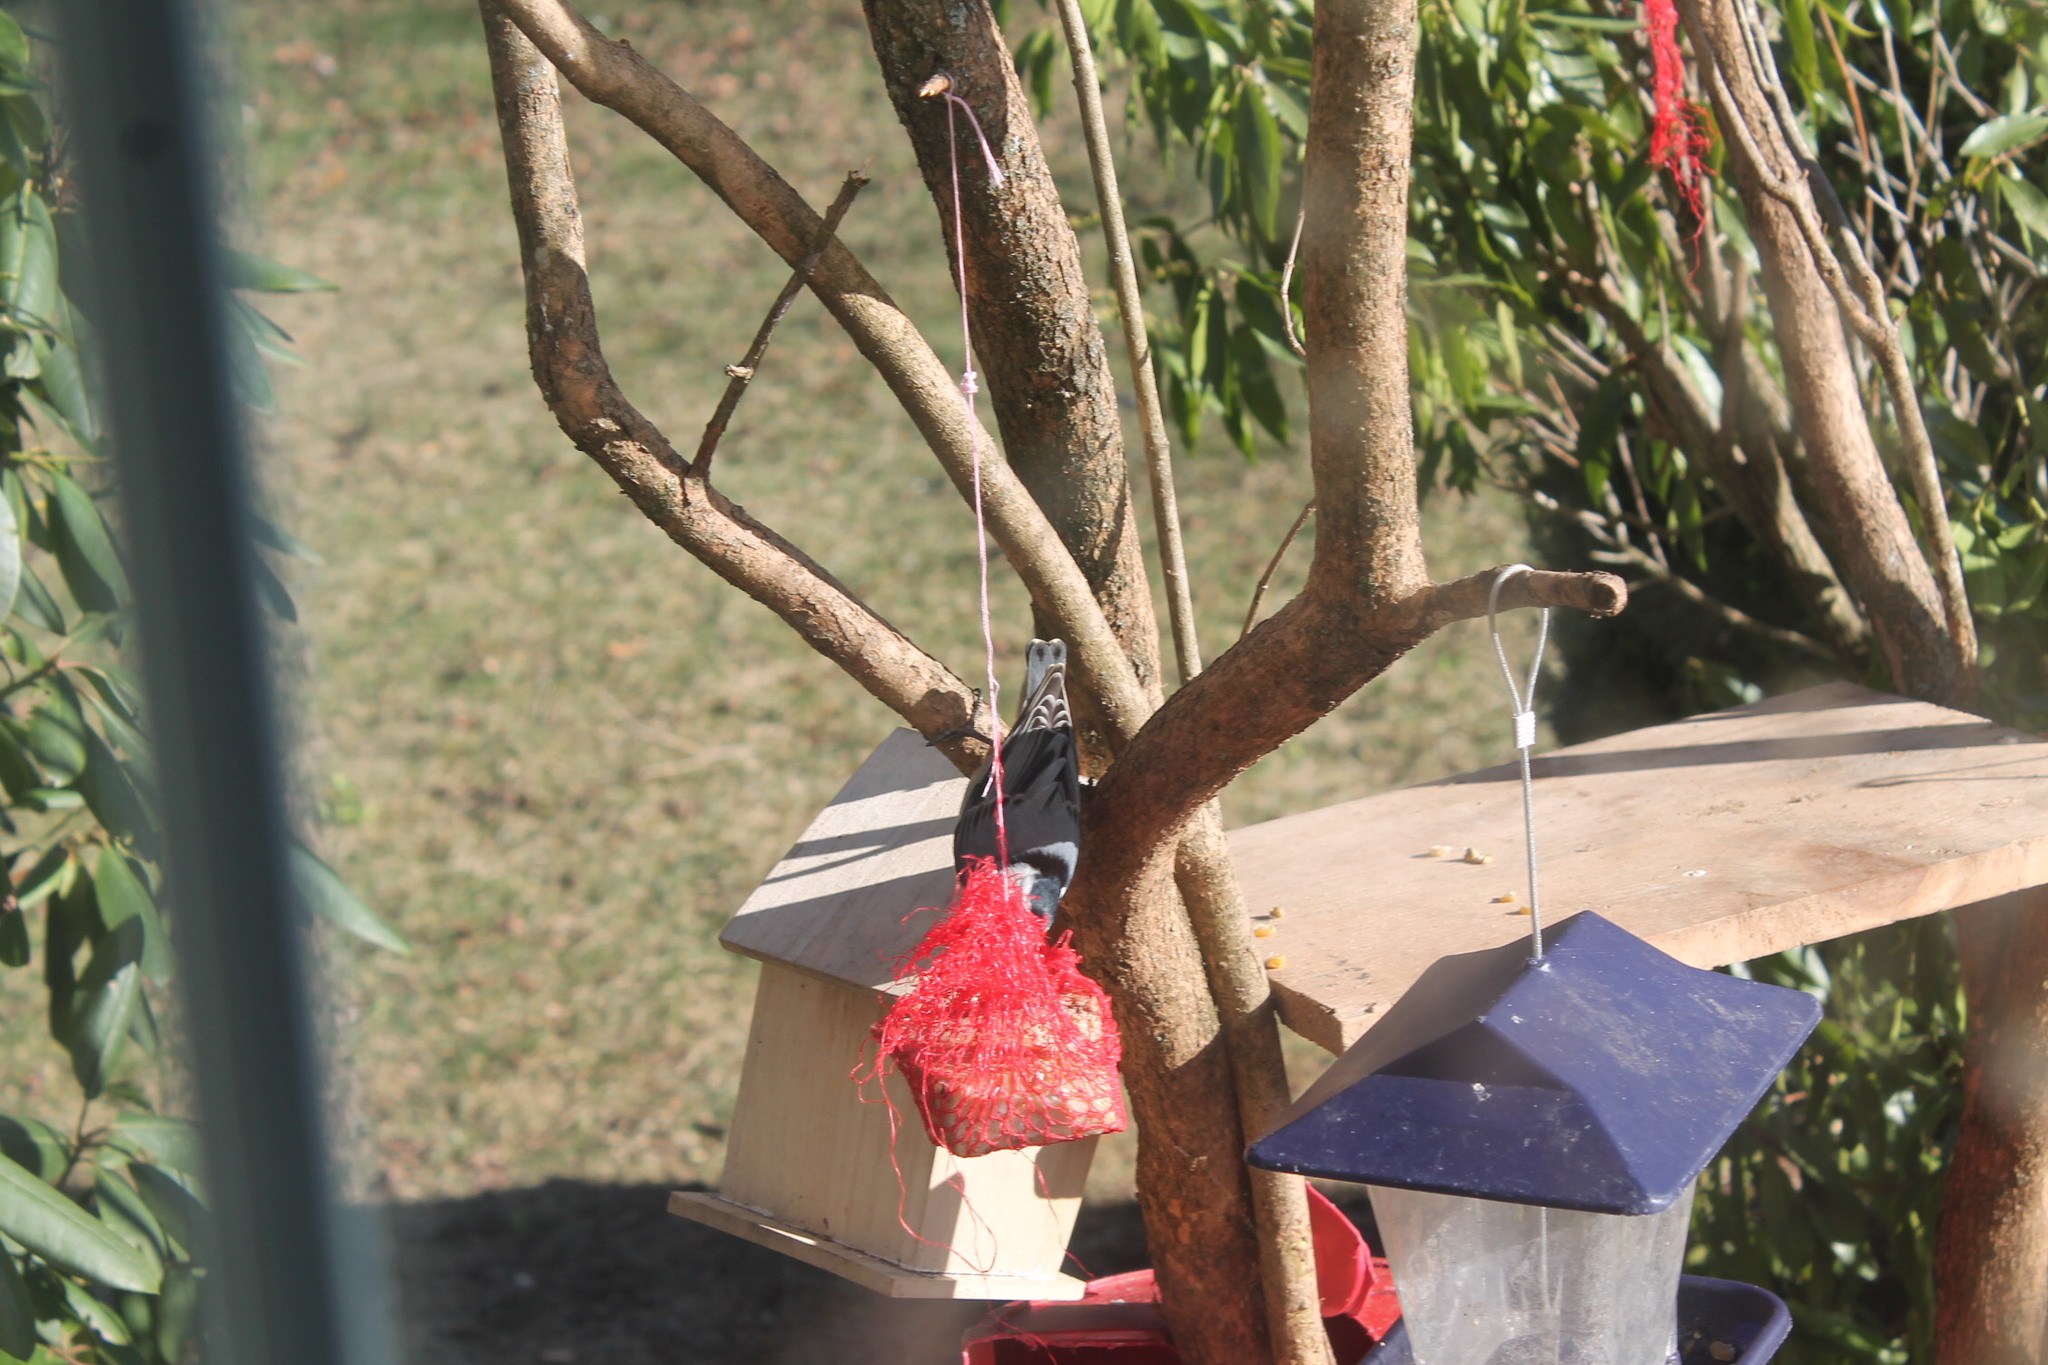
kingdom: Animalia
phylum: Chordata
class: Aves
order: Passeriformes
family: Sittidae
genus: Sitta
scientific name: Sitta carolinensis
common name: White-breasted nuthatch
